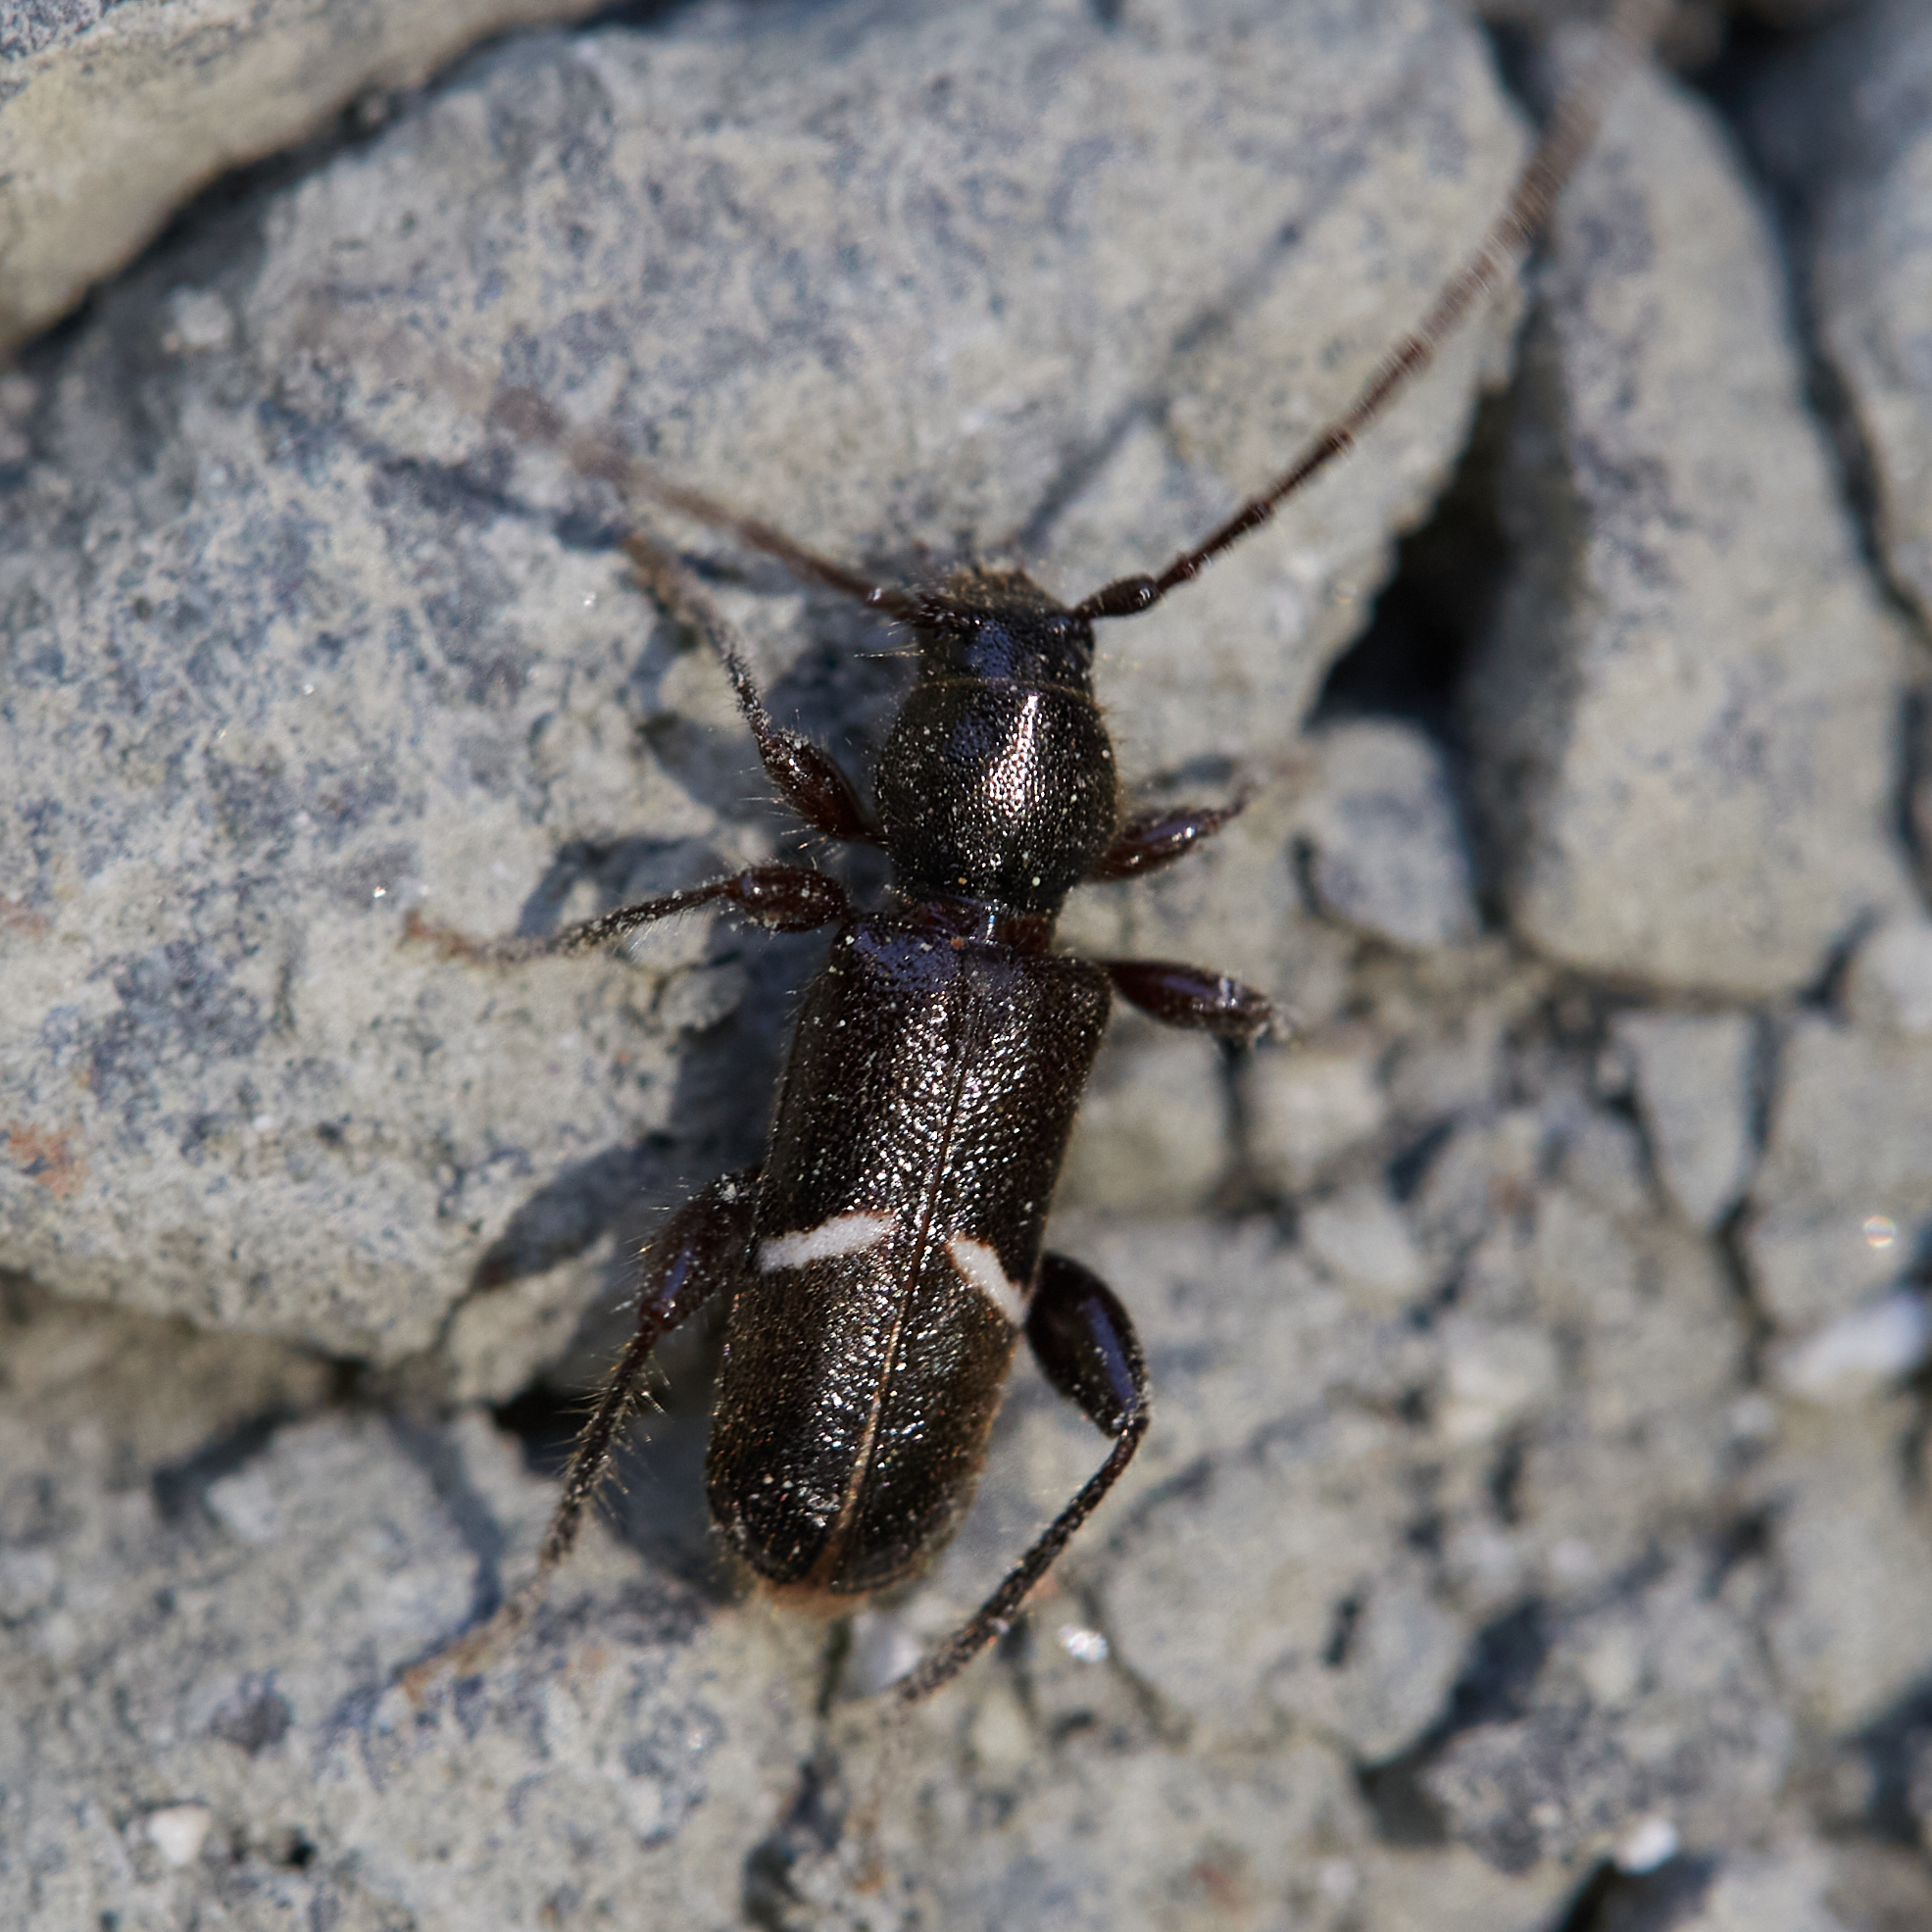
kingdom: Animalia
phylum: Arthropoda
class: Insecta
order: Coleoptera
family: Cerambycidae
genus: Phymatodes
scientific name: Phymatodes vulneratus
